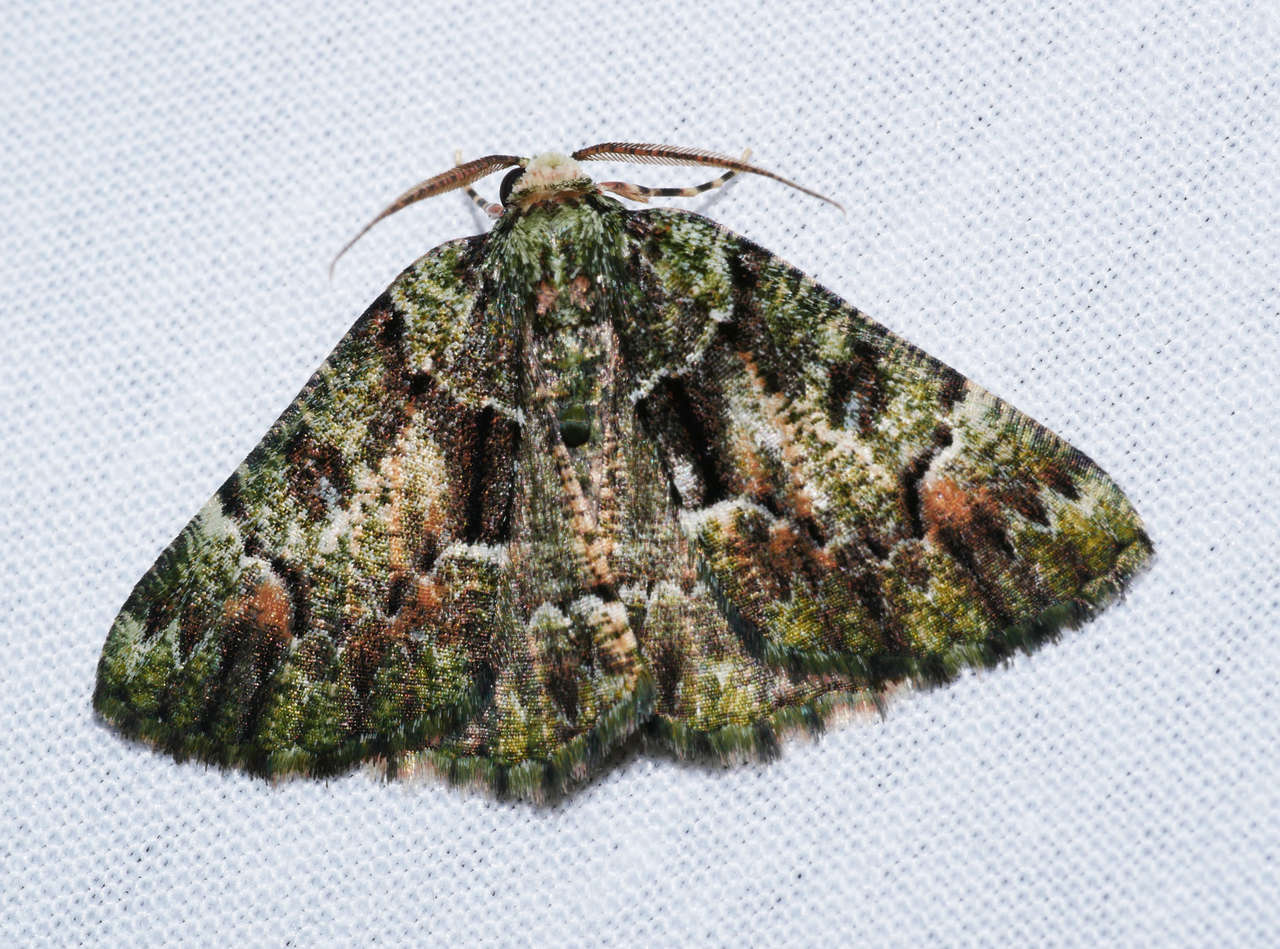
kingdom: Animalia
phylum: Arthropoda
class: Insecta
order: Lepidoptera
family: Geometridae
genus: Aeolochroma
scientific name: Aeolochroma metarhodata
